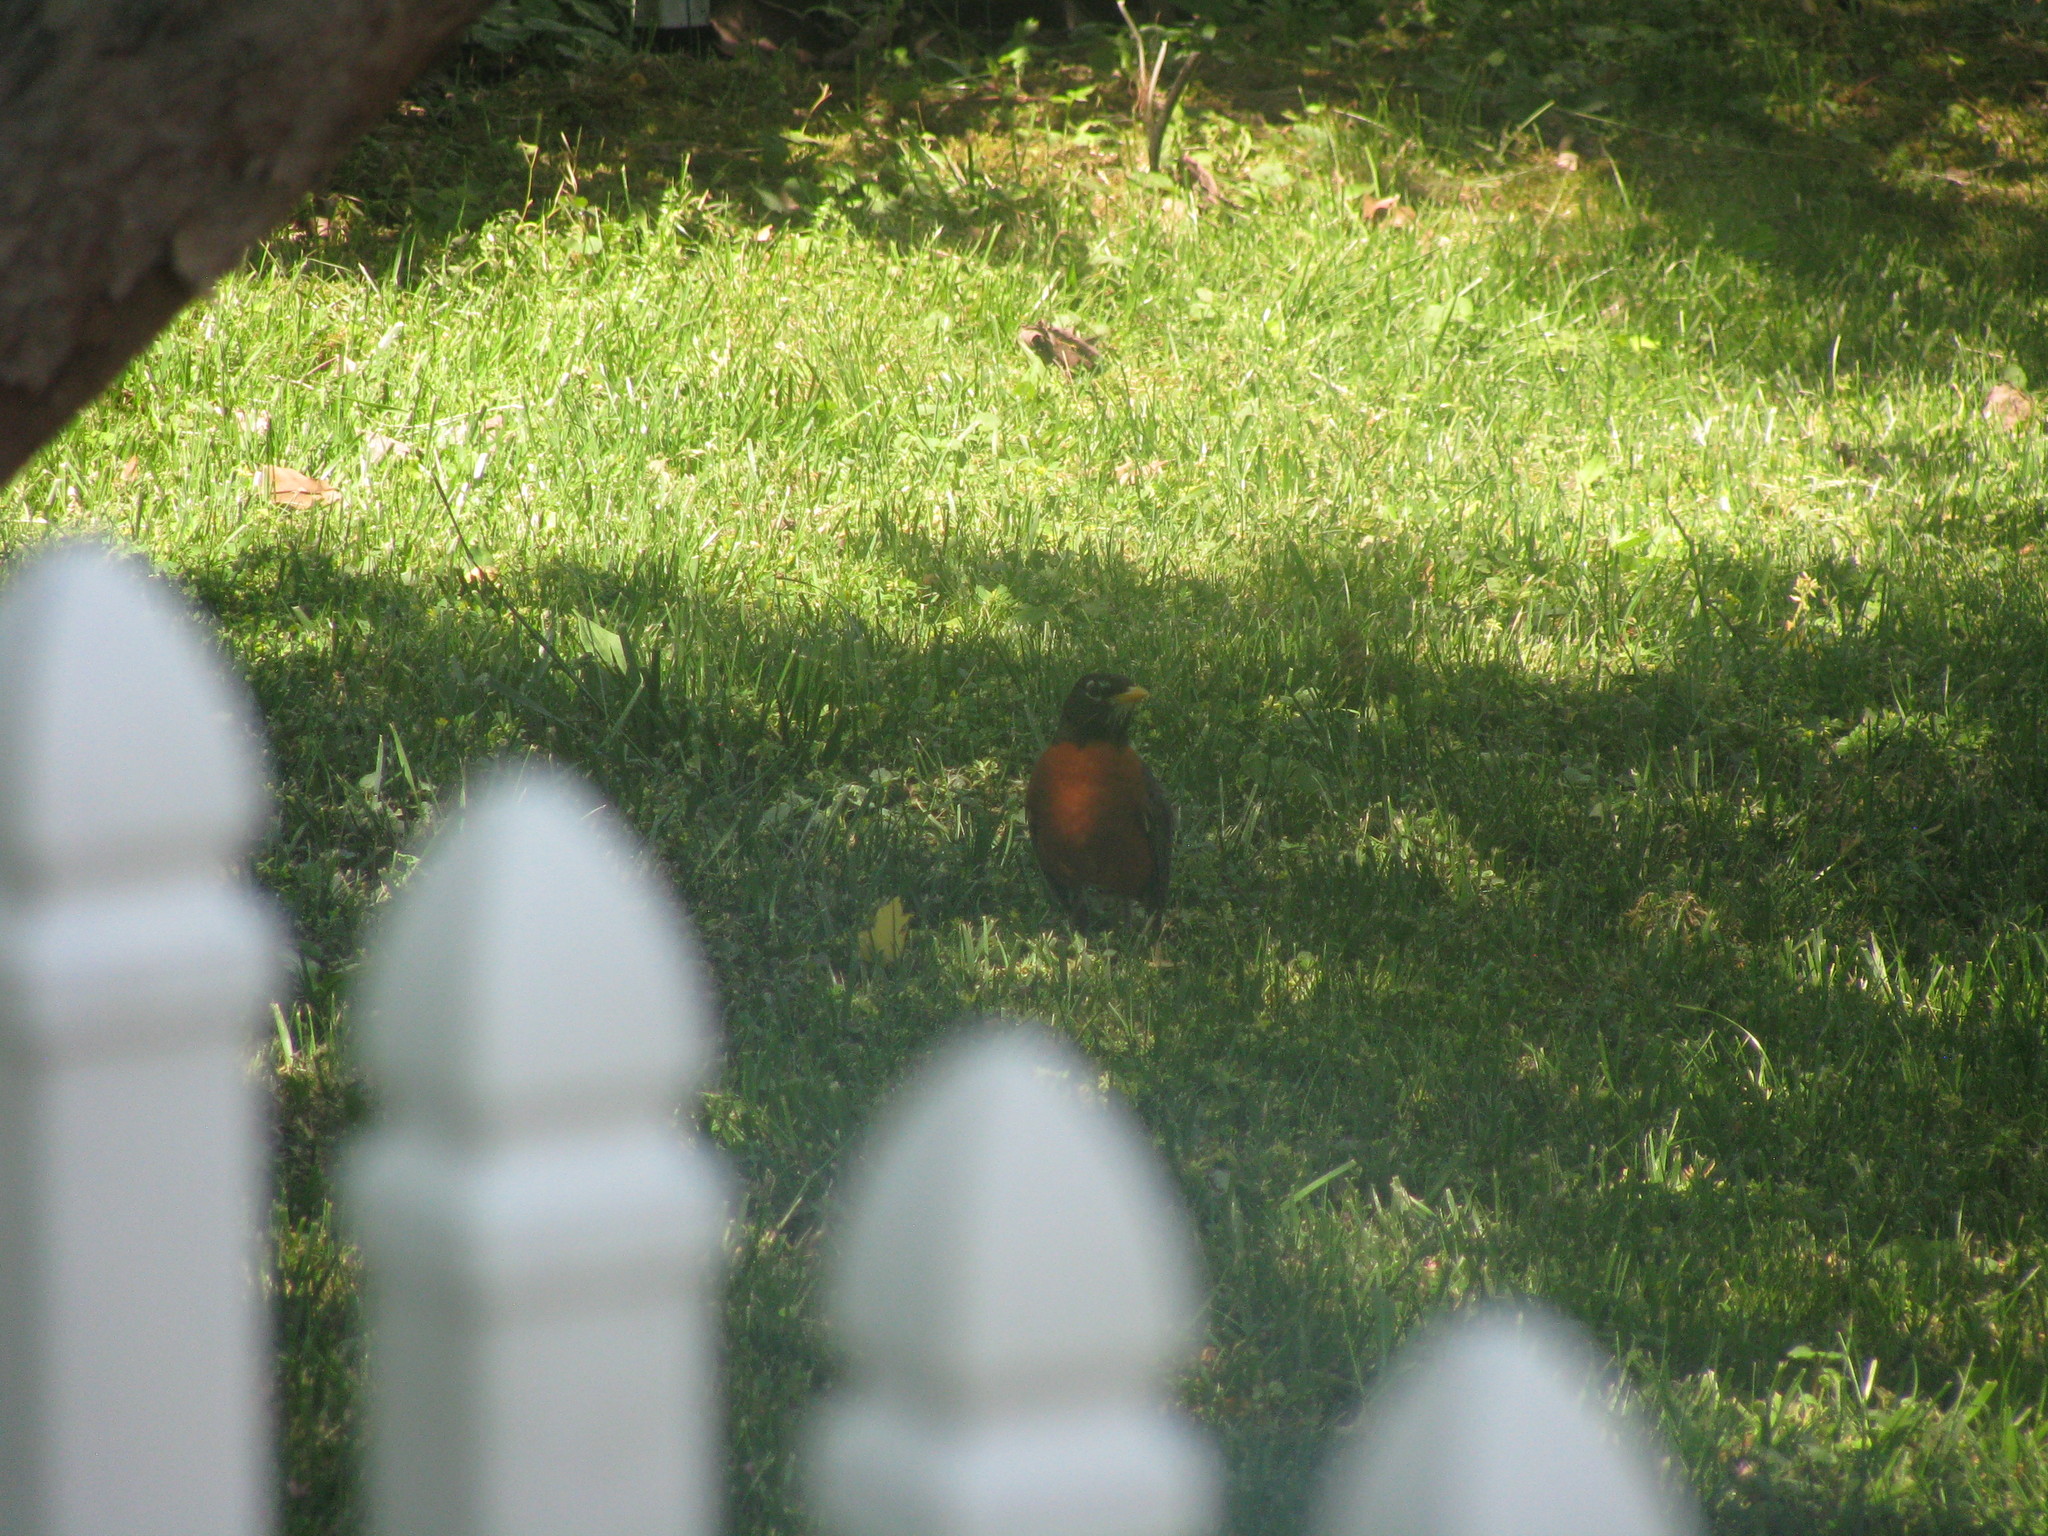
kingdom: Animalia
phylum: Chordata
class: Aves
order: Passeriformes
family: Turdidae
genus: Turdus
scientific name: Turdus migratorius
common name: American robin
